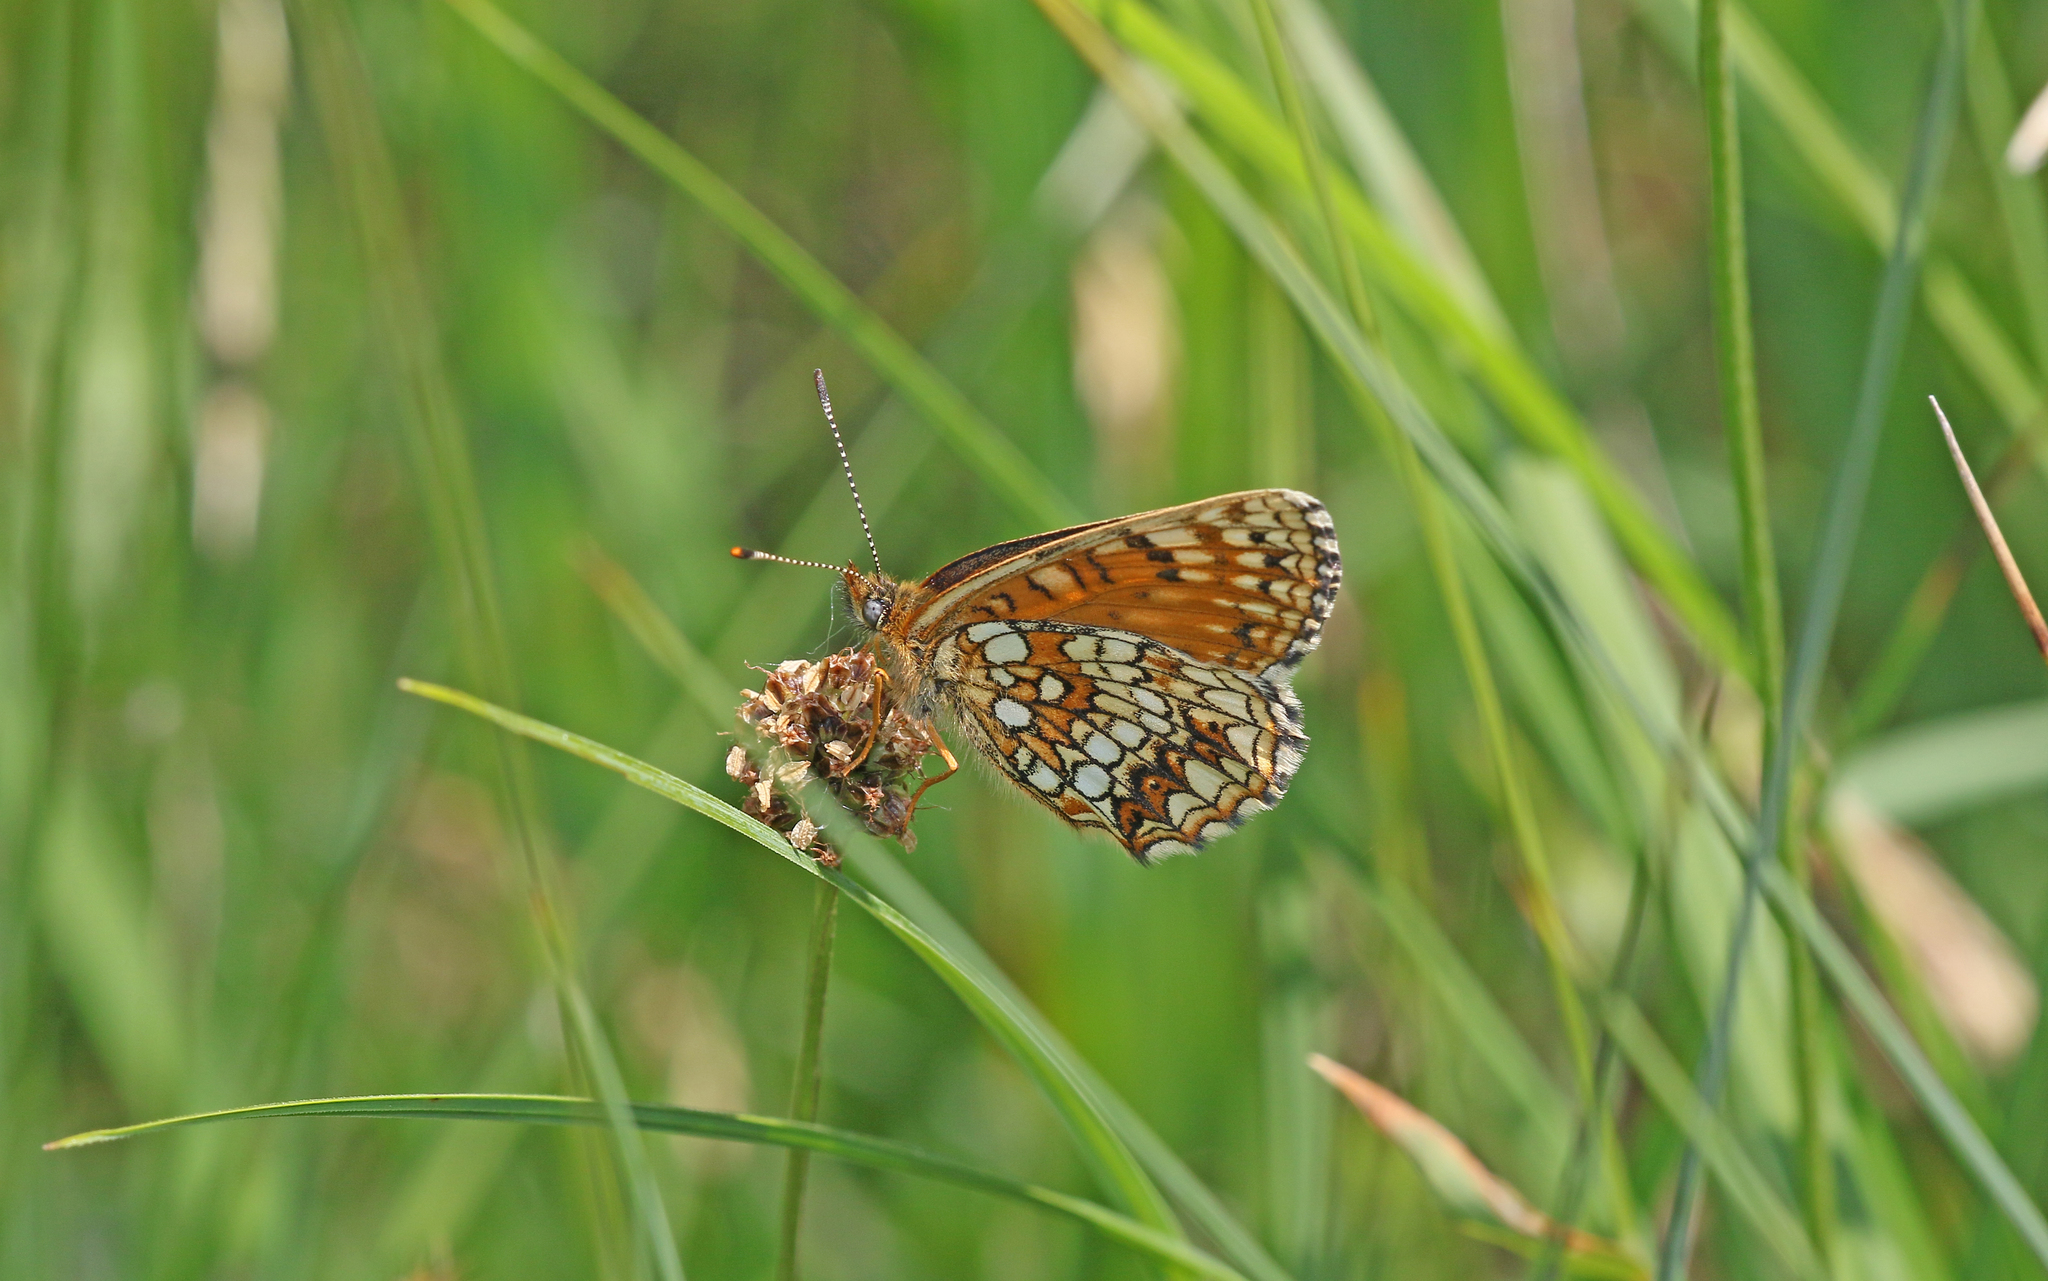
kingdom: Animalia
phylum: Arthropoda
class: Insecta
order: Lepidoptera
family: Nymphalidae
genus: Melitaea
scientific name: Melitaea diamina
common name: False heath fritillary
